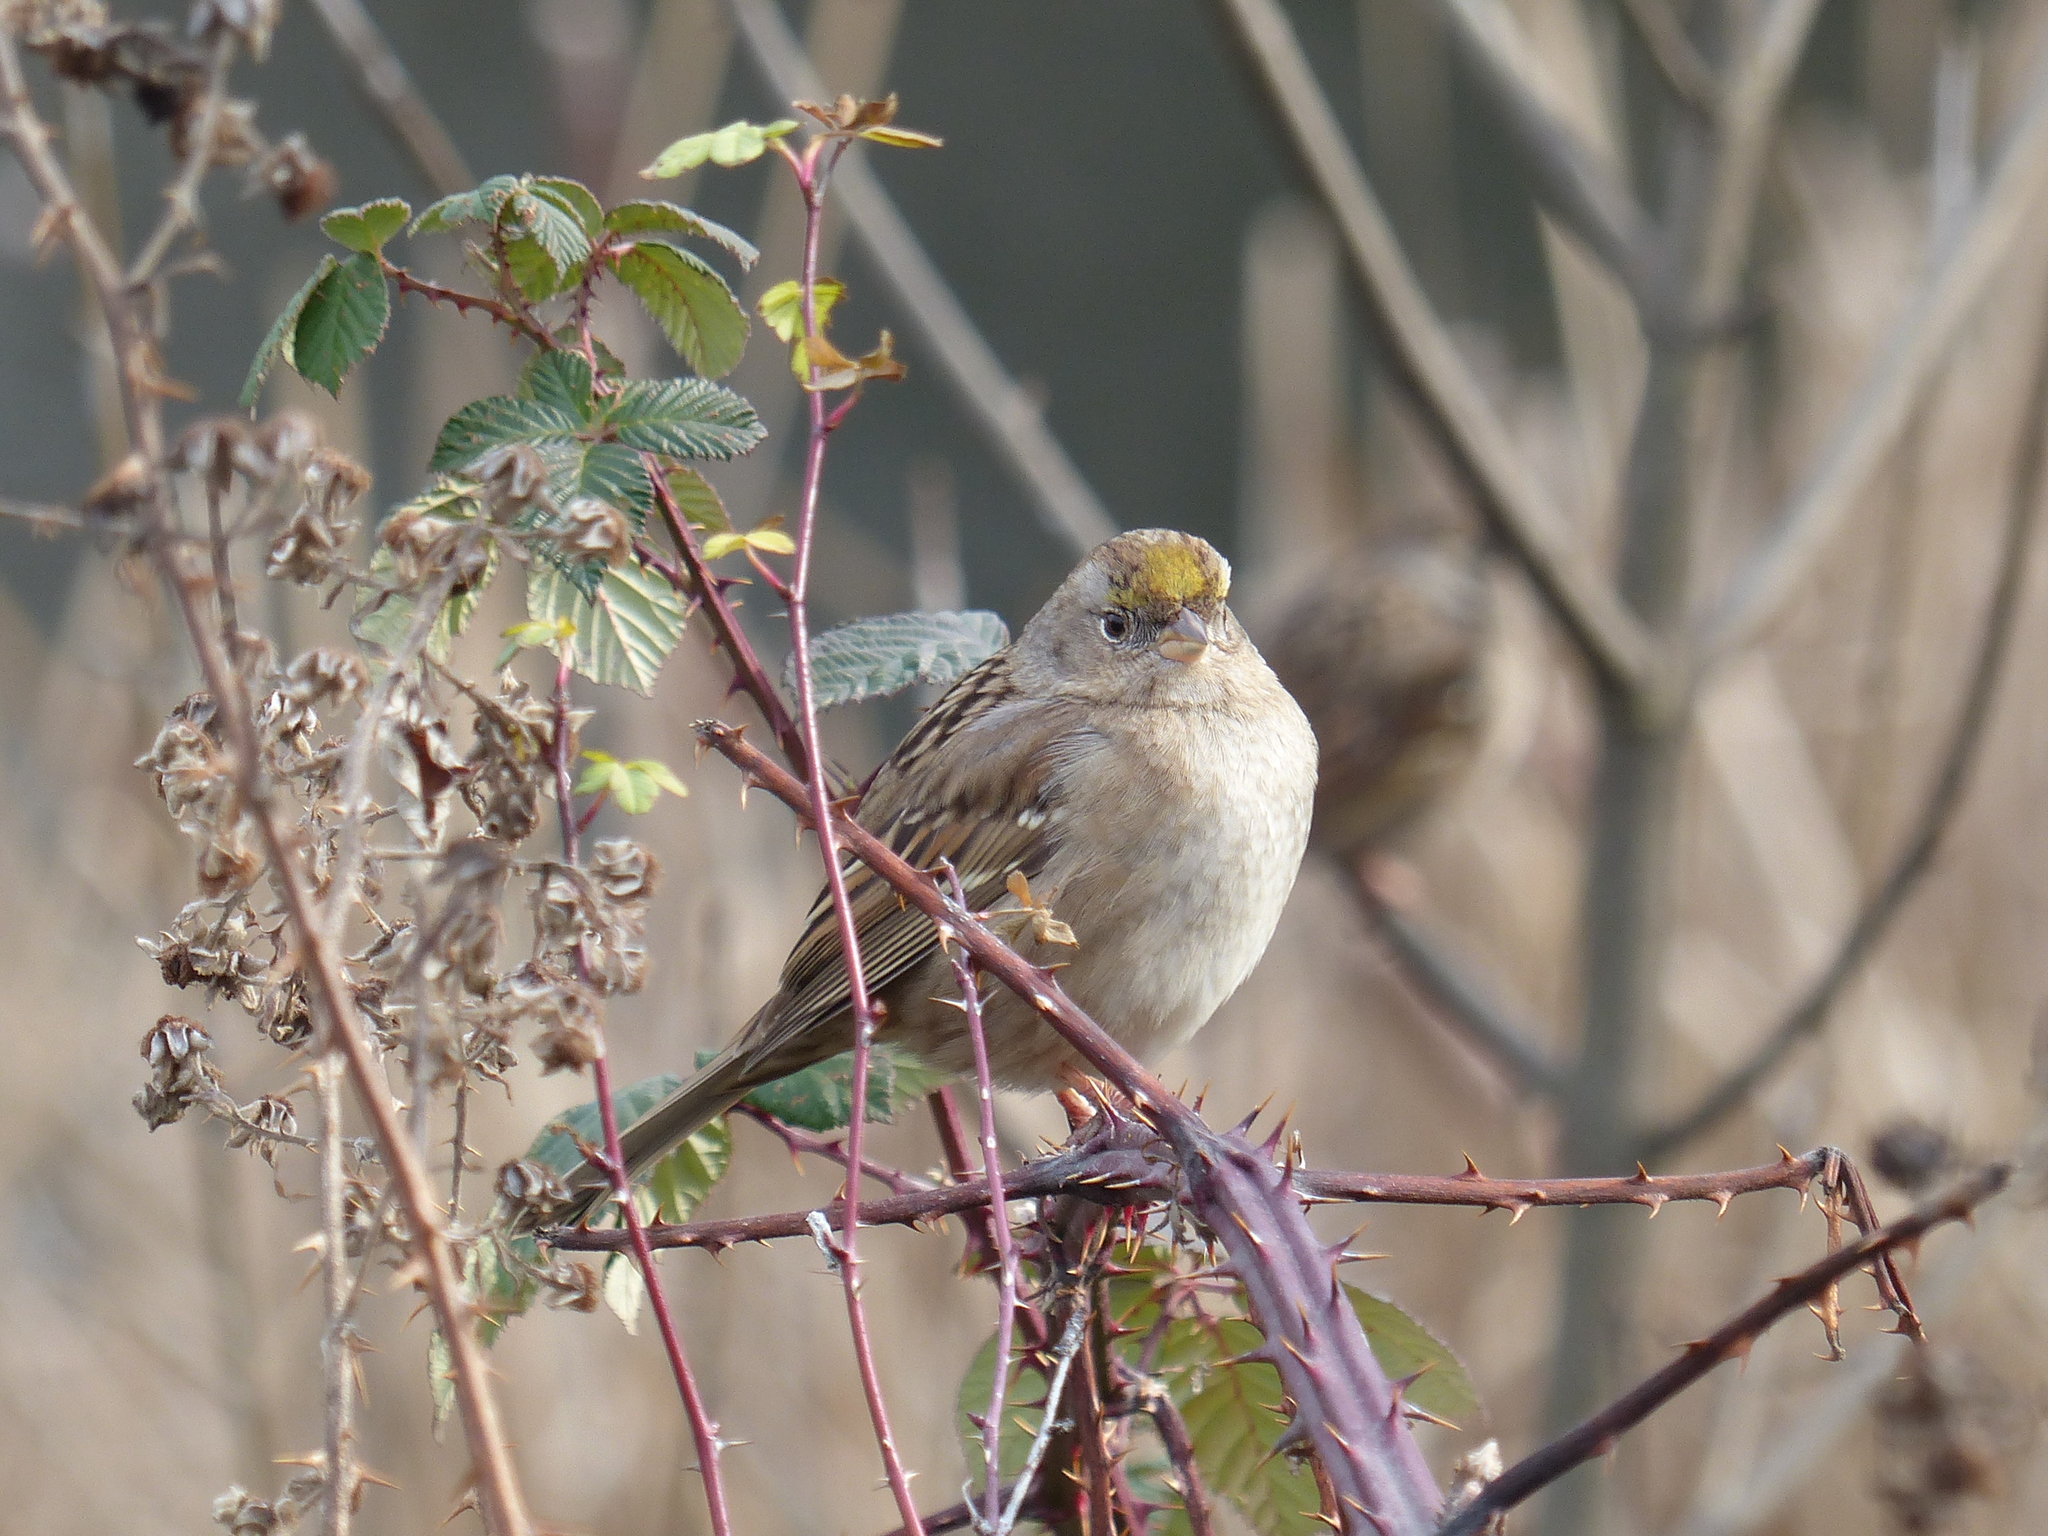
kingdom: Animalia
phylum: Chordata
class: Aves
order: Passeriformes
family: Passerellidae
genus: Zonotrichia
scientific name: Zonotrichia atricapilla
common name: Golden-crowned sparrow
